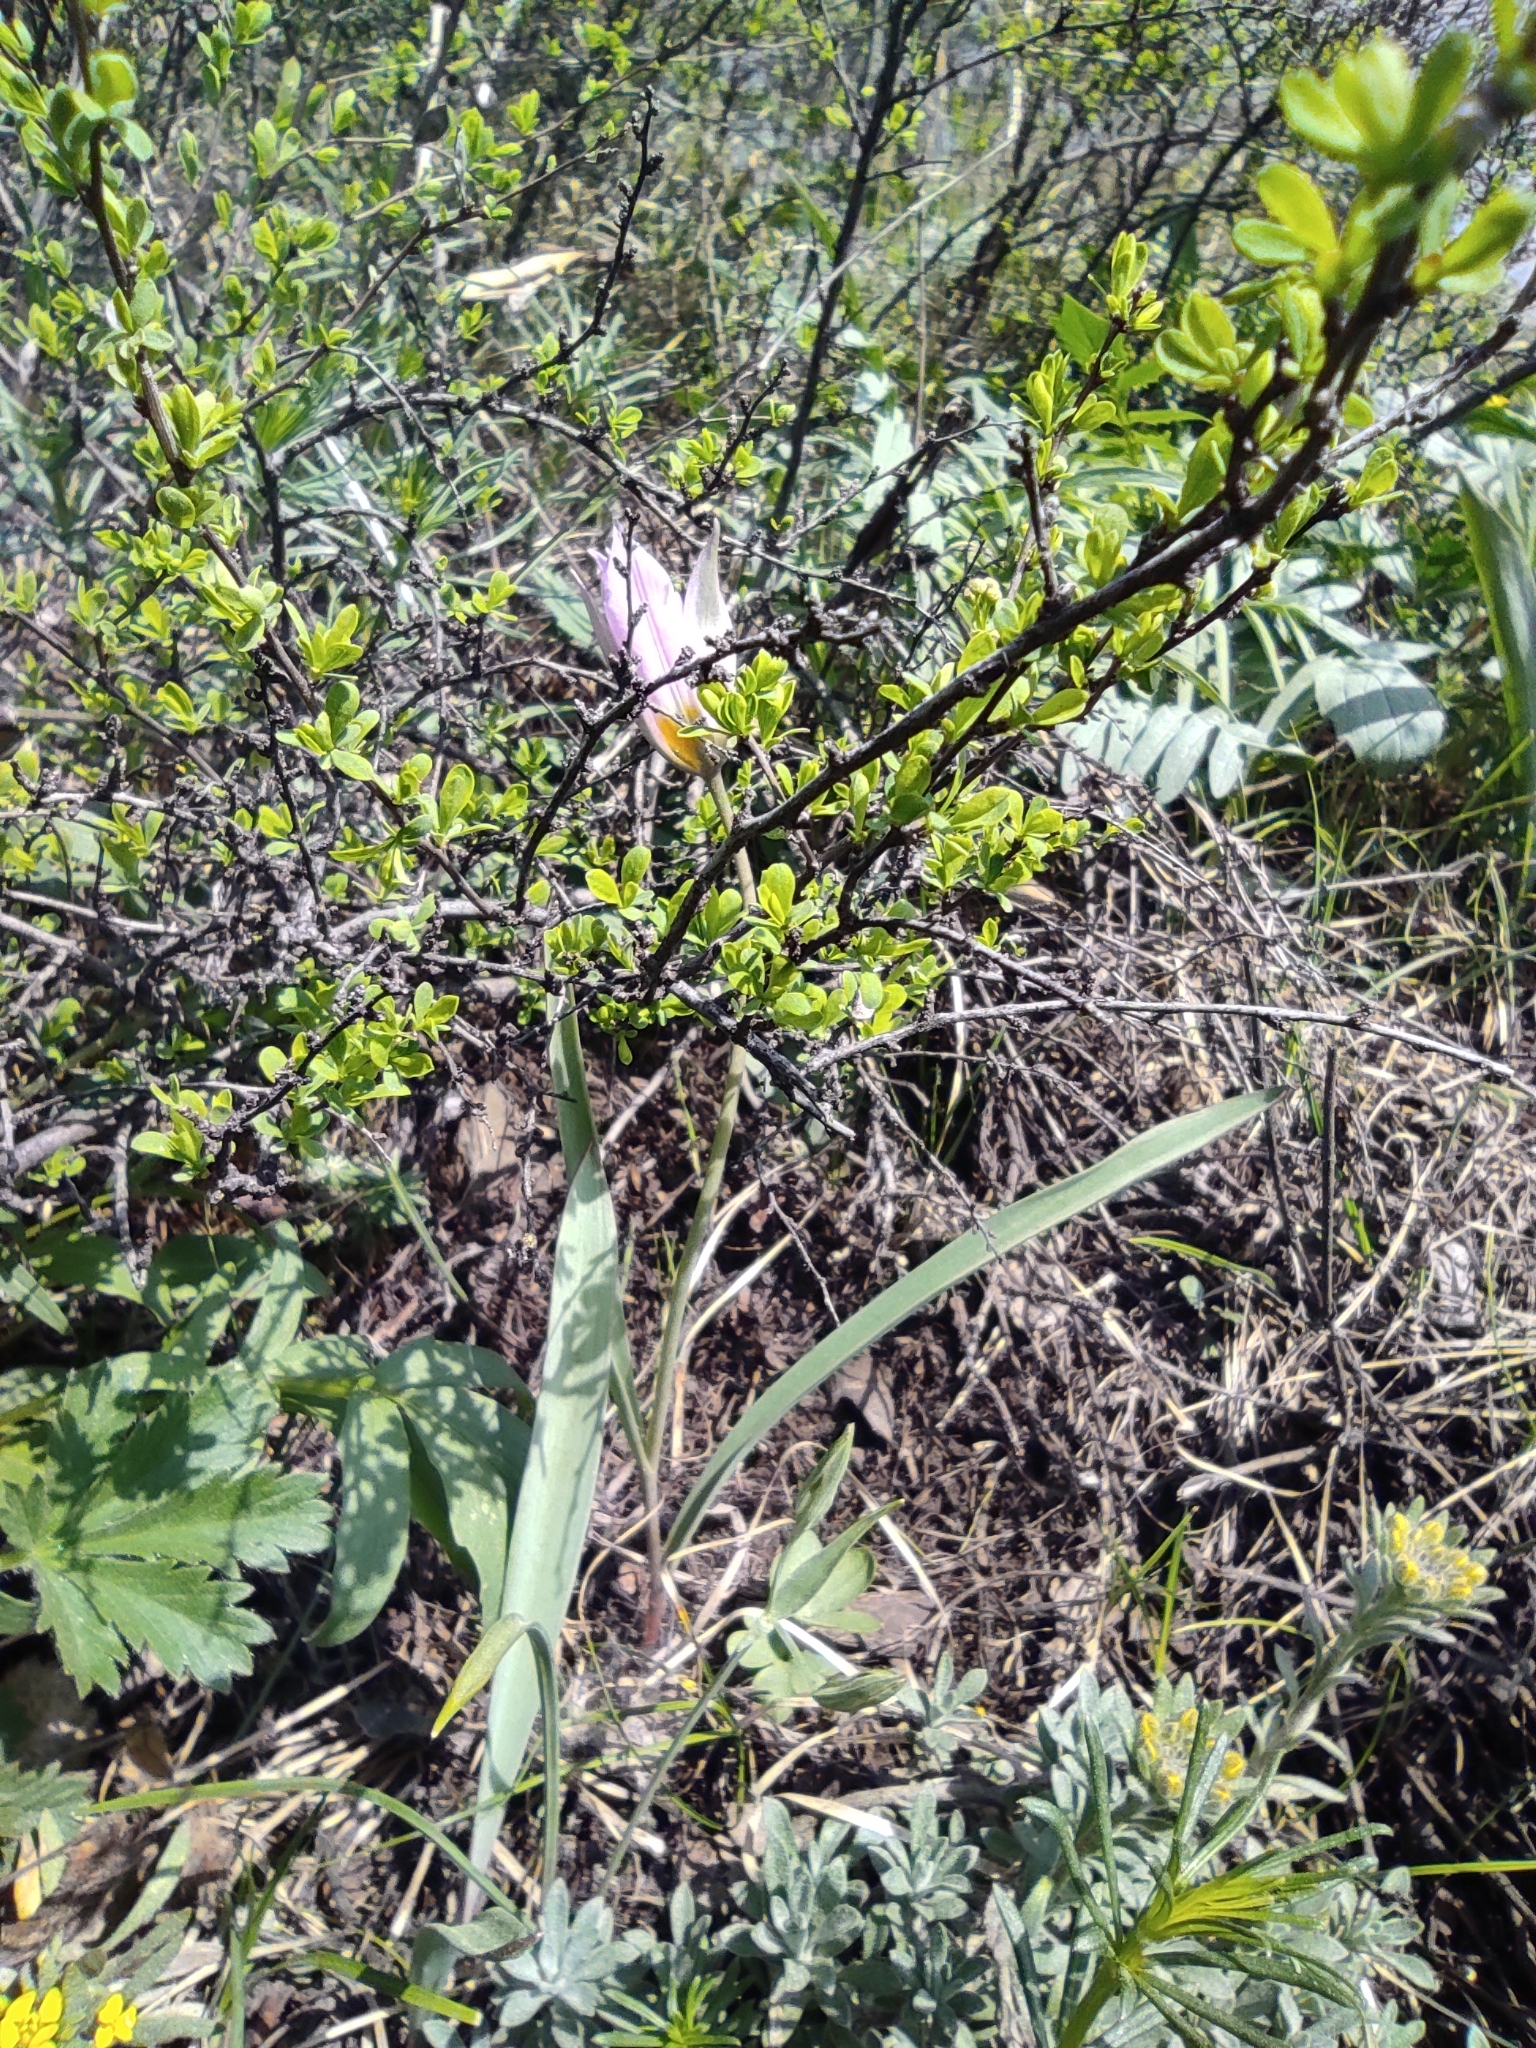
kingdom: Plantae
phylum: Tracheophyta
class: Liliopsida
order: Liliales
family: Liliaceae
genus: Tulipa
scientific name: Tulipa patens
